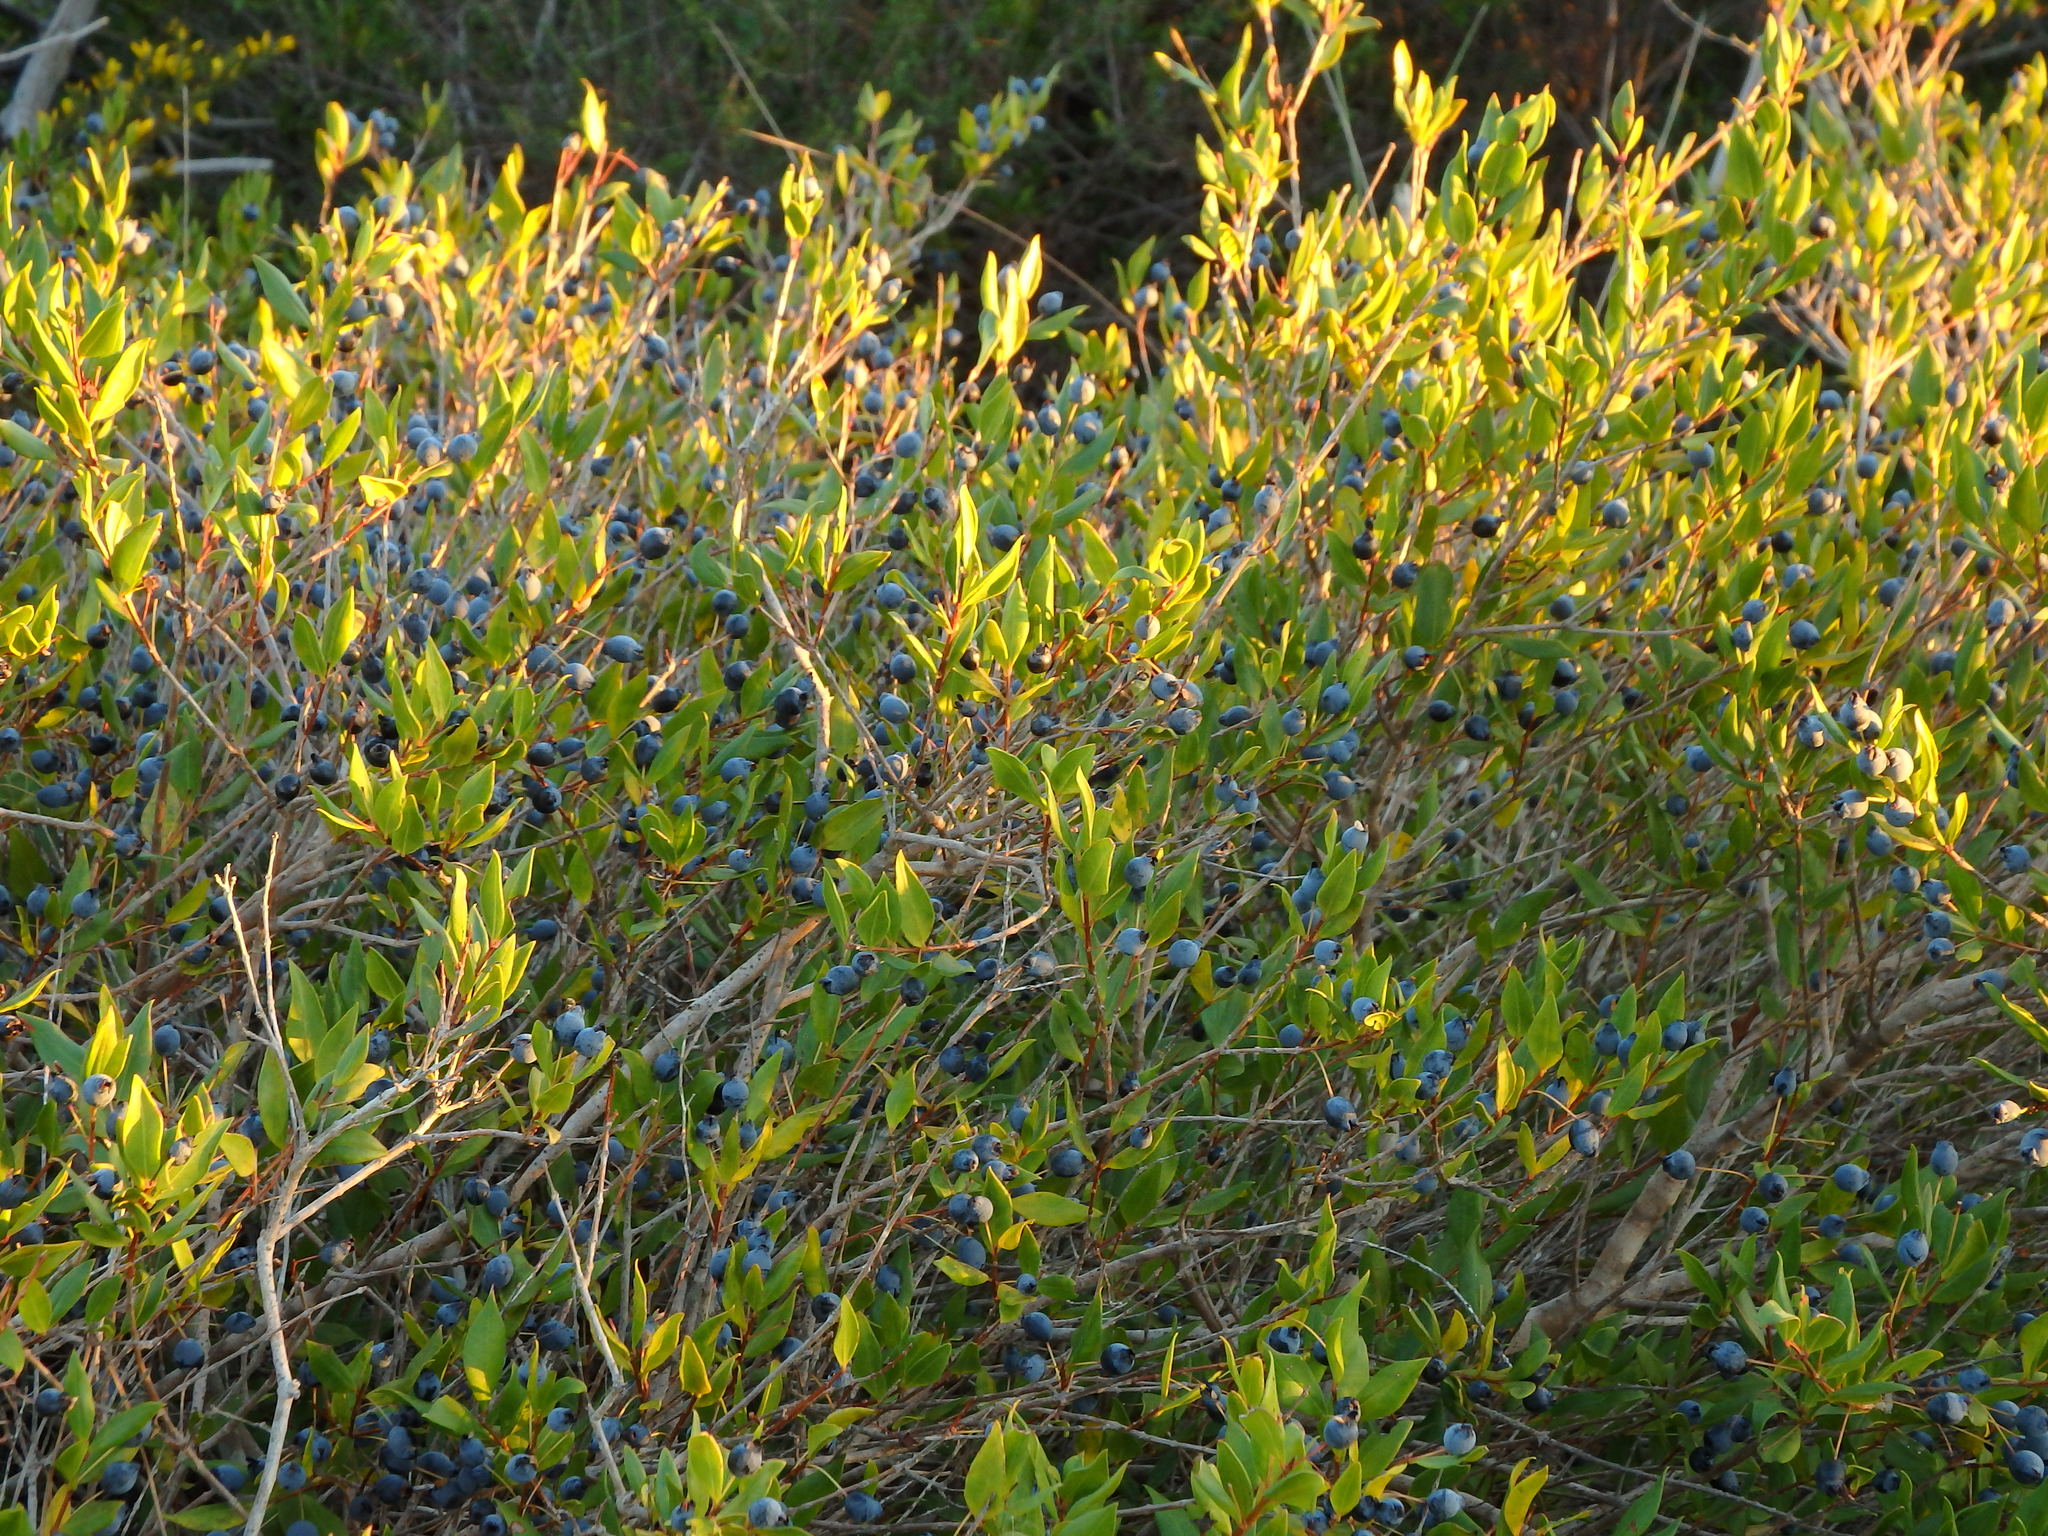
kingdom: Plantae
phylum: Tracheophyta
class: Magnoliopsida
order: Myrtales
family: Myrtaceae
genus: Myrtus
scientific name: Myrtus communis
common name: Myrtle
